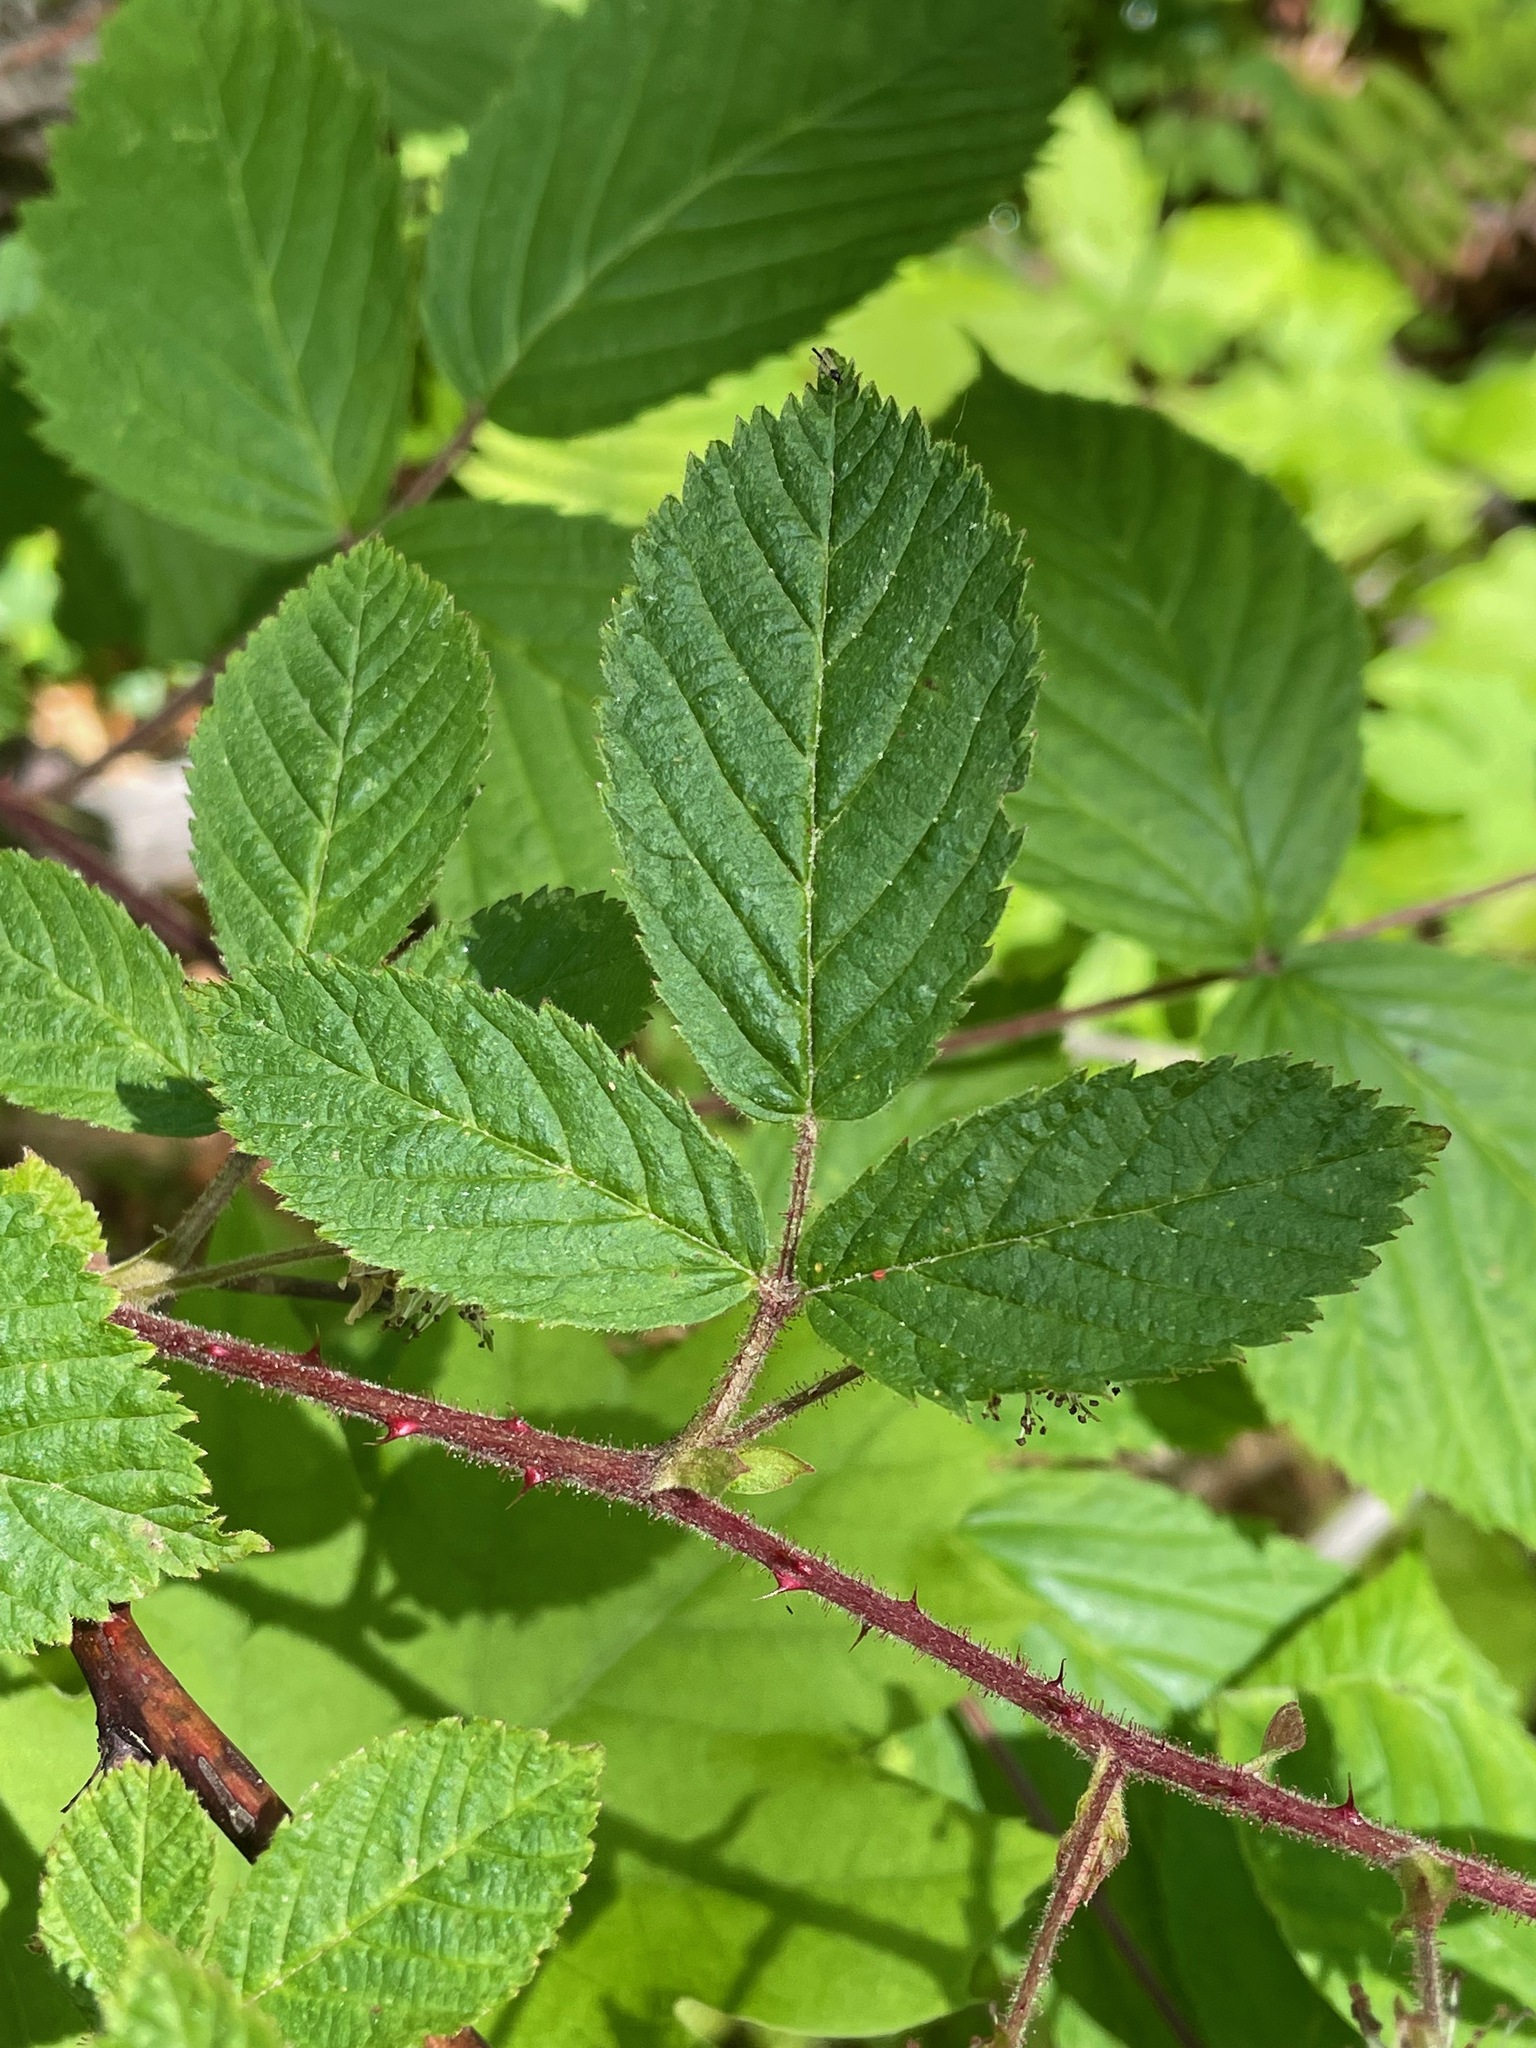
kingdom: Plantae
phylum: Tracheophyta
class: Magnoliopsida
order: Rosales
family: Rosaceae
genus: Rubus
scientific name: Rubus allegheniensis
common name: Allegheny blackberry
